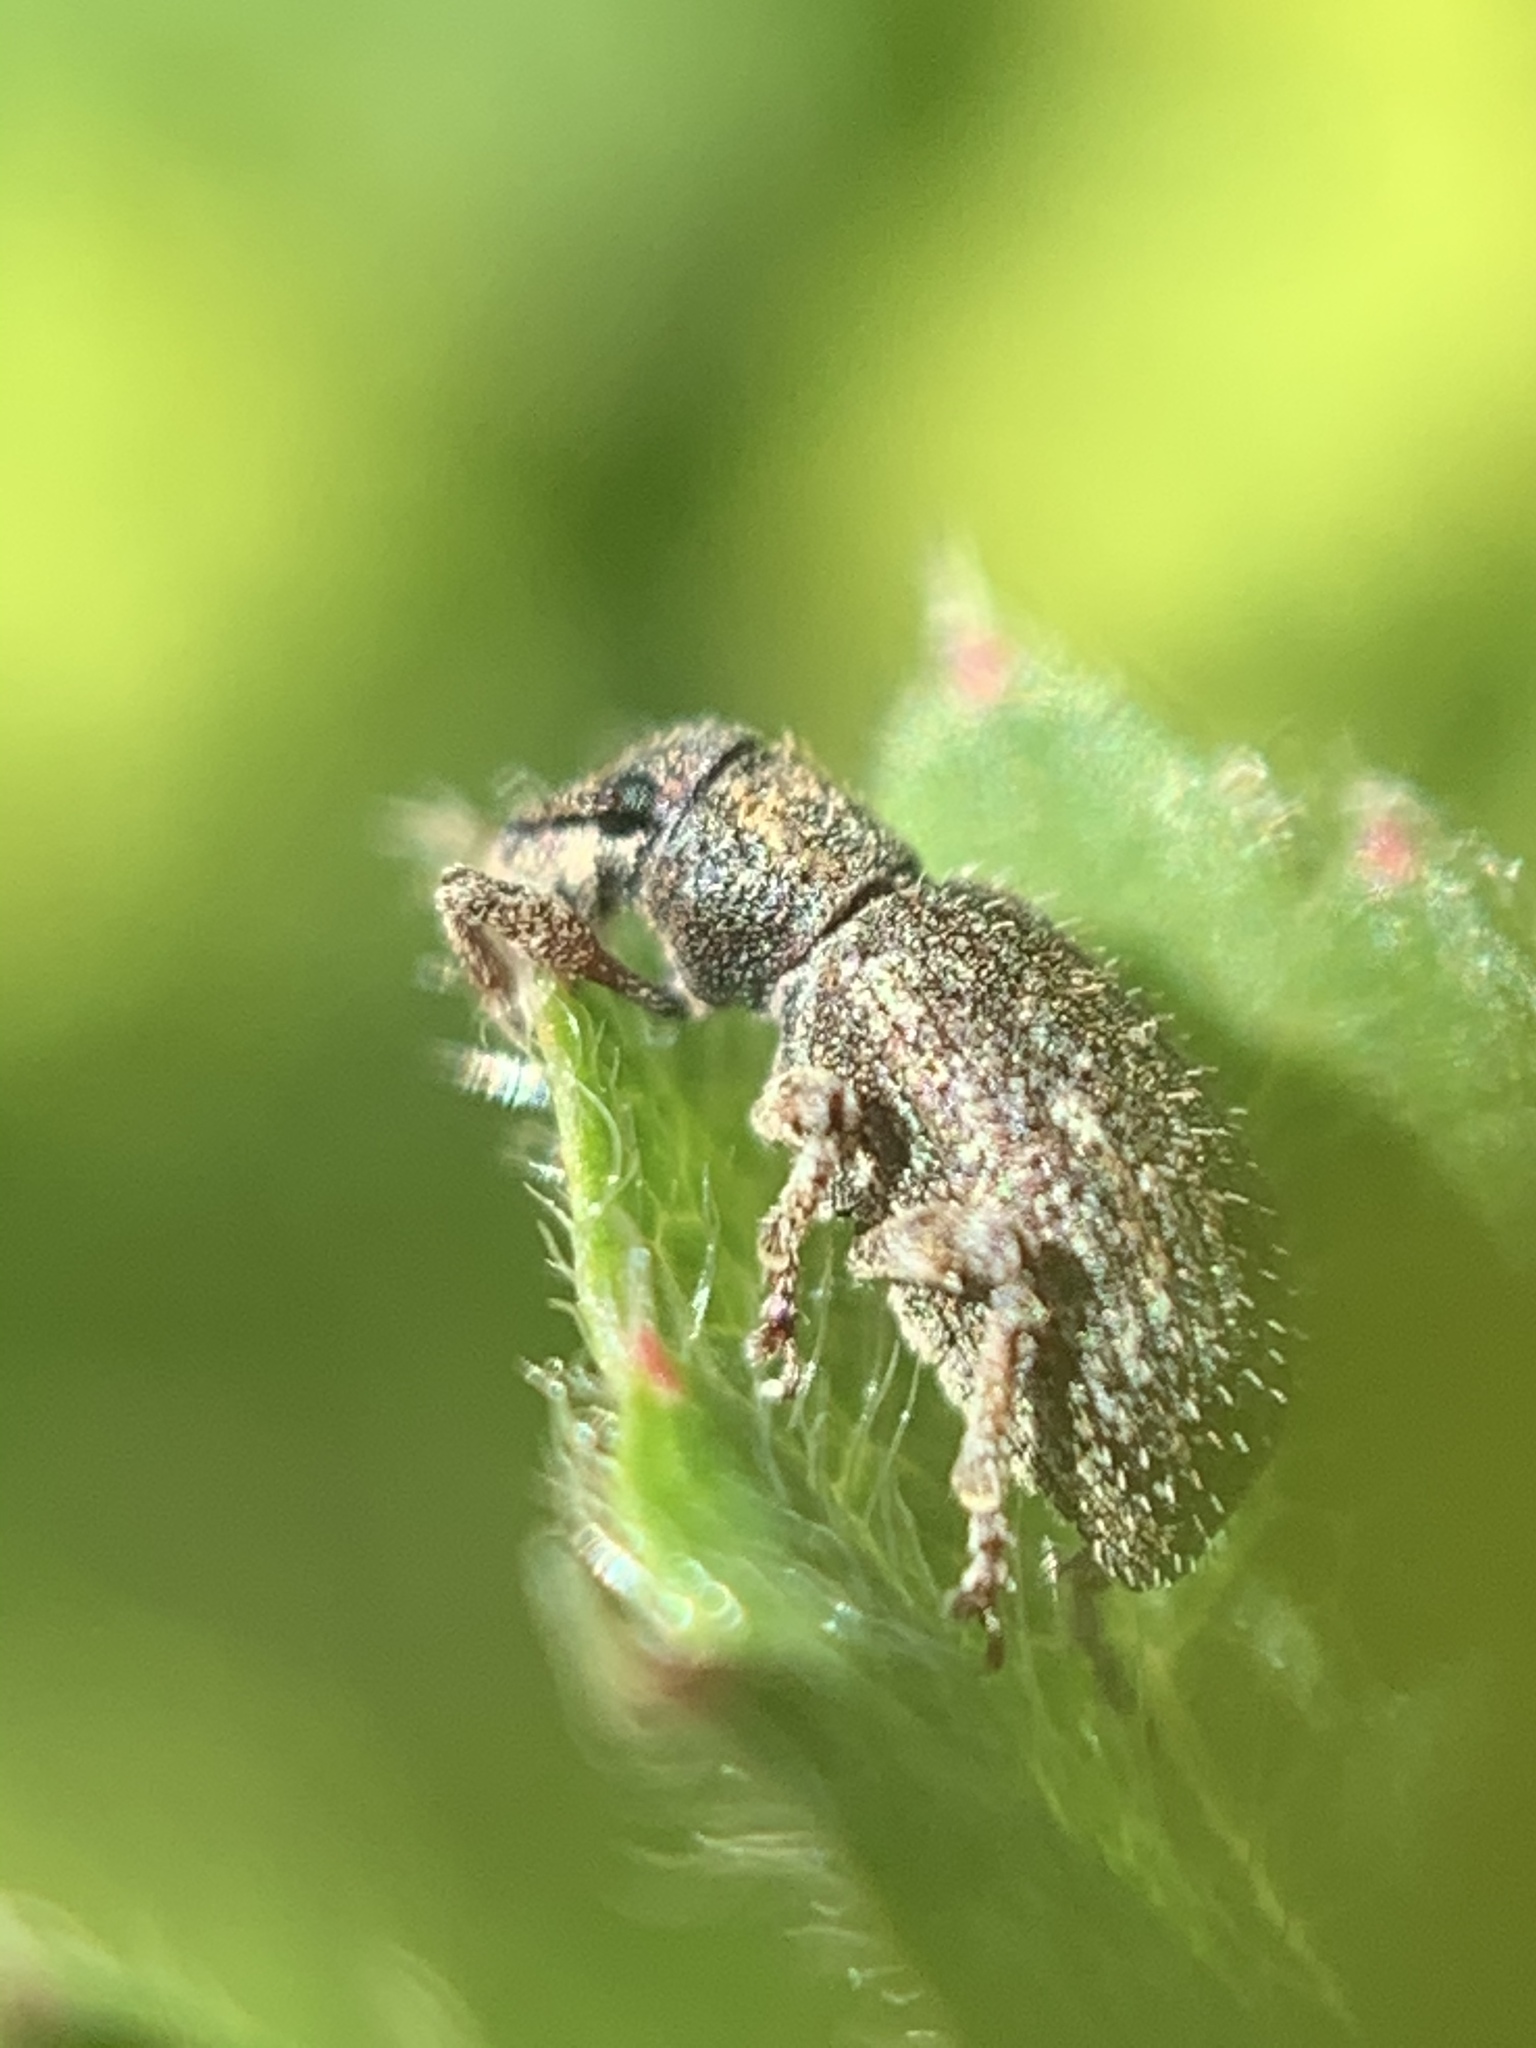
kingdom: Animalia
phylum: Arthropoda
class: Insecta
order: Coleoptera
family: Curculionidae
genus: Sciaphilus
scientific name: Sciaphilus asperatus
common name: Weevil
